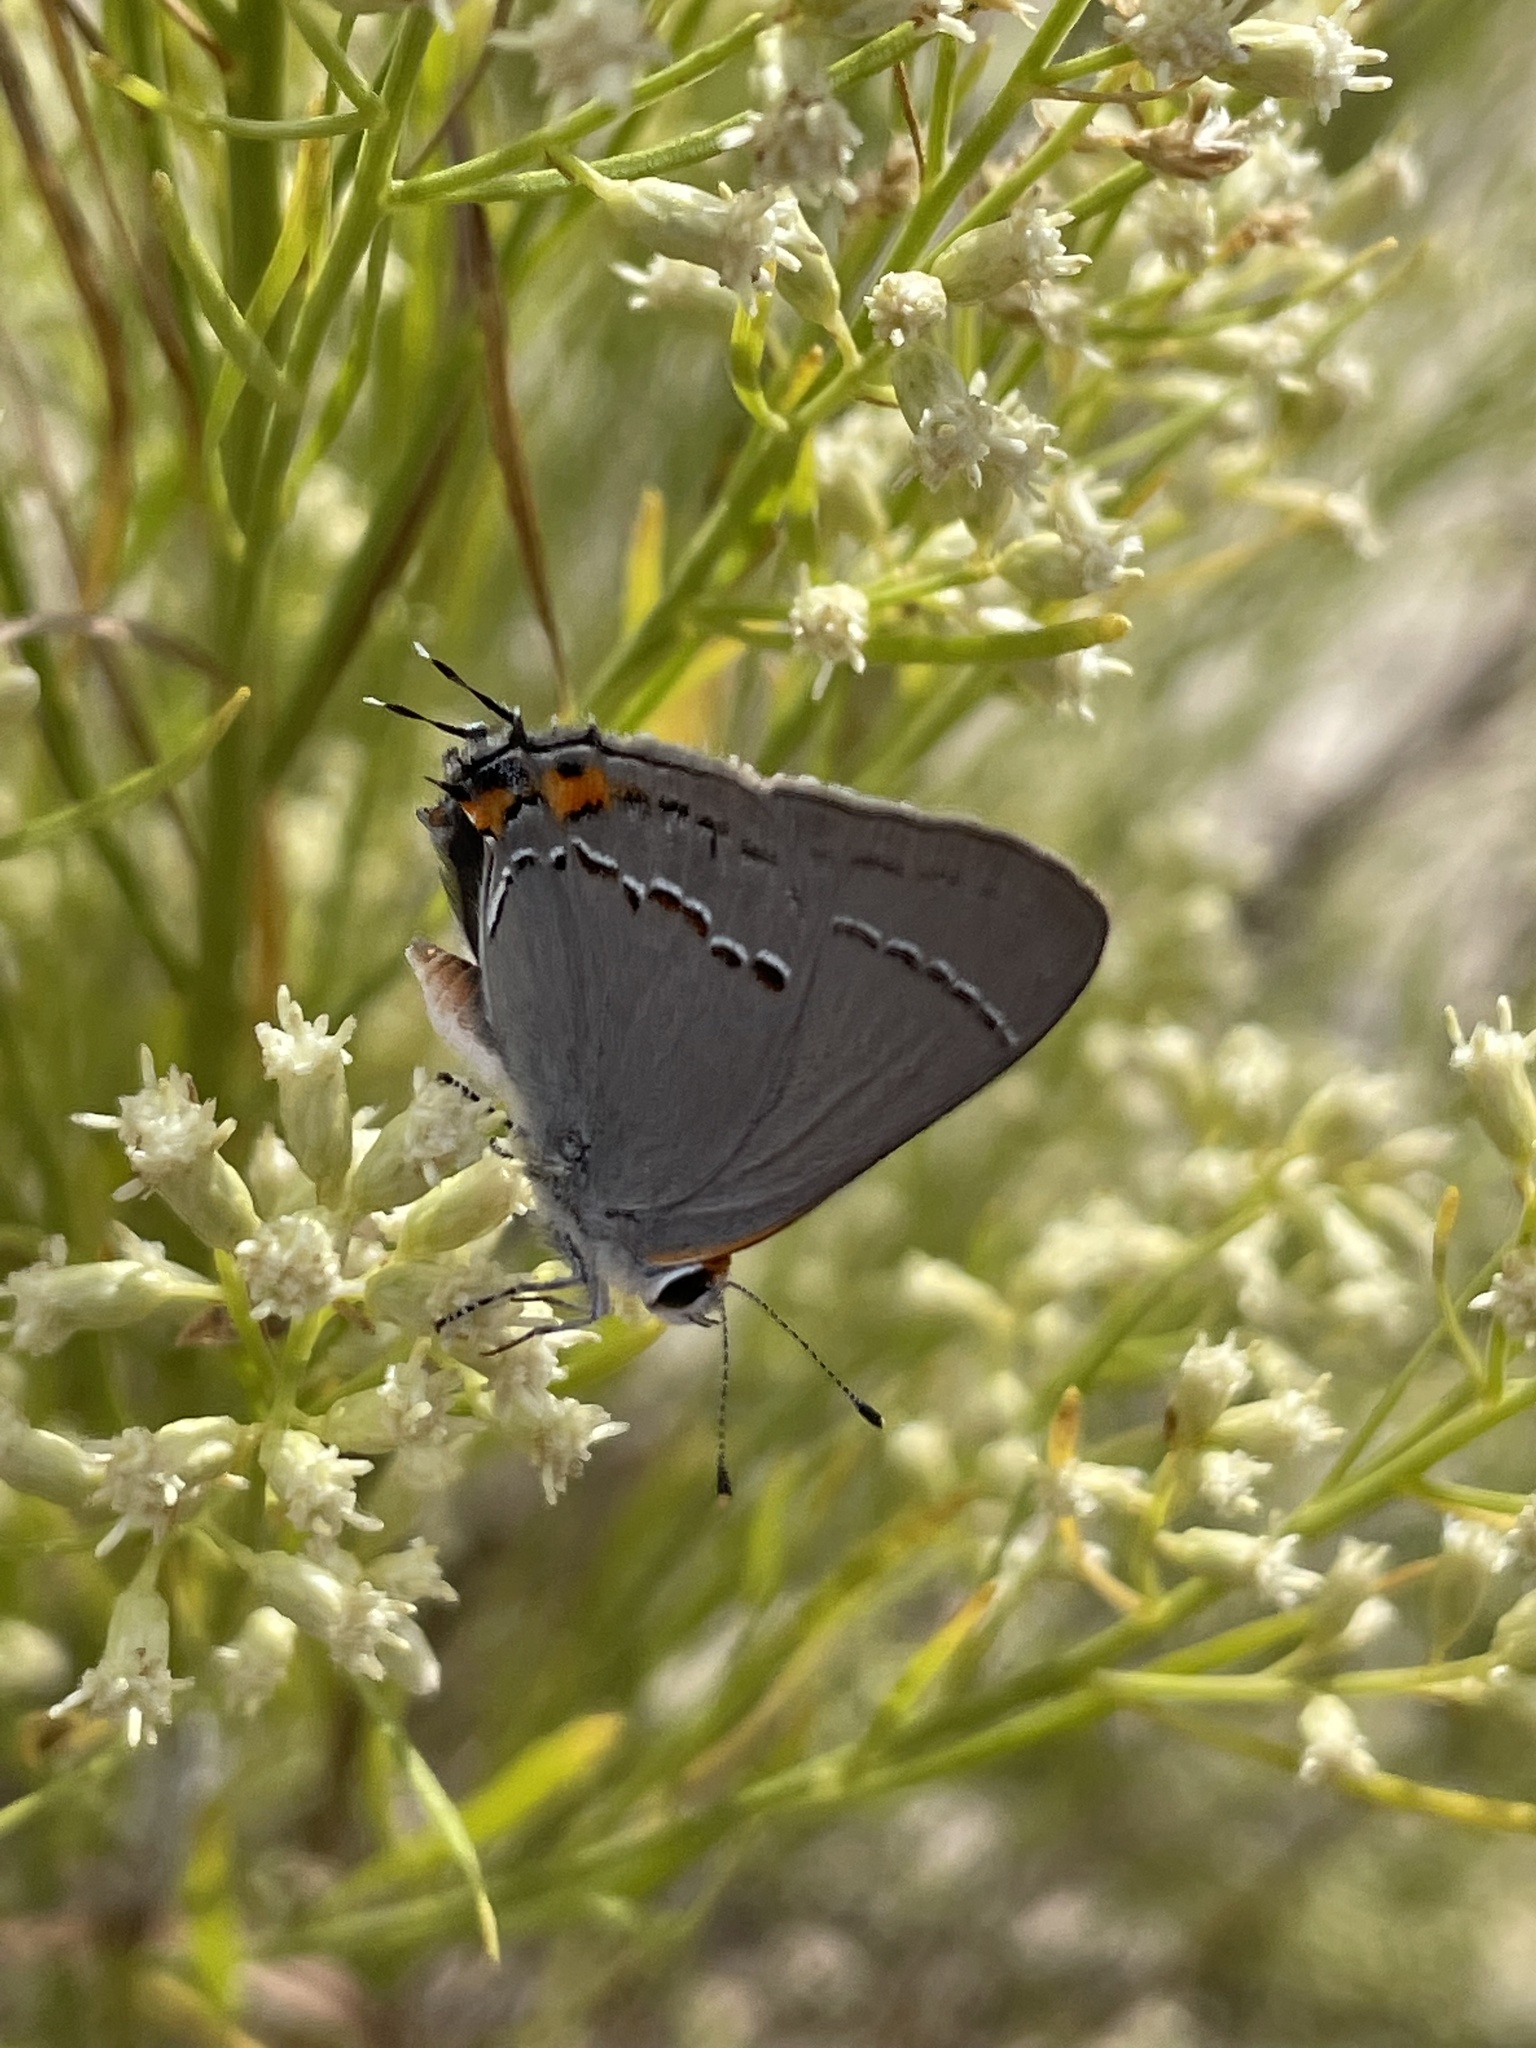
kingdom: Animalia
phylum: Arthropoda
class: Insecta
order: Lepidoptera
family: Lycaenidae
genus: Strymon
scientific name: Strymon melinus
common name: Gray hairstreak
